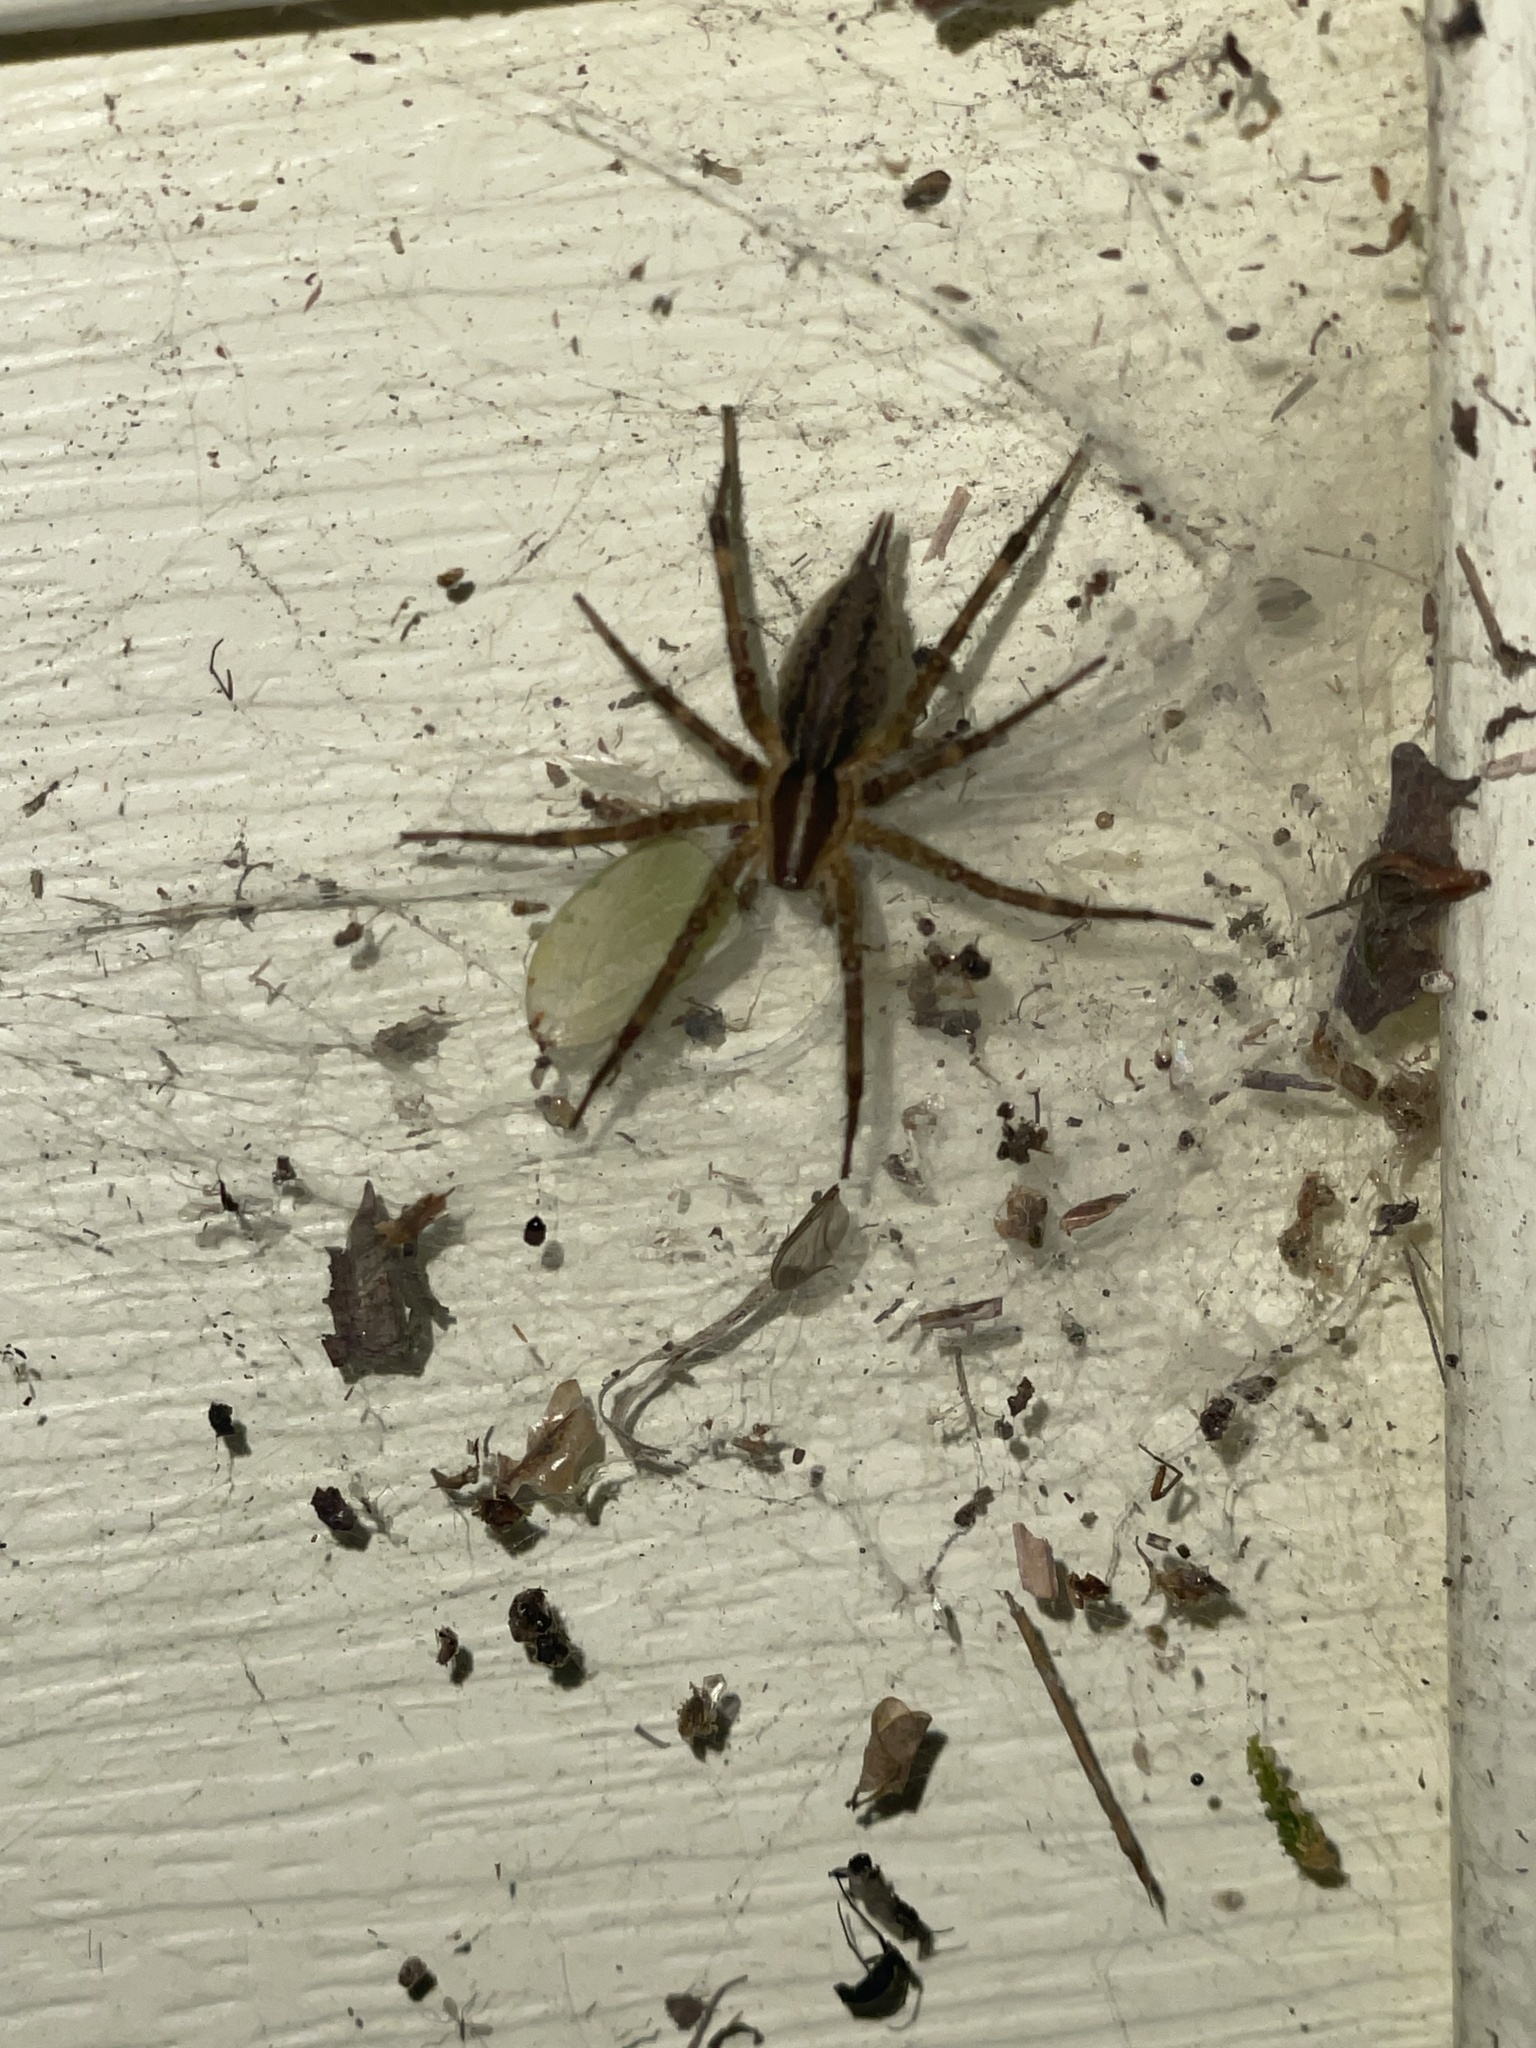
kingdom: Animalia
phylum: Arthropoda
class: Arachnida
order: Araneae
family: Agelenidae
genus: Agelenopsis
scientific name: Agelenopsis
